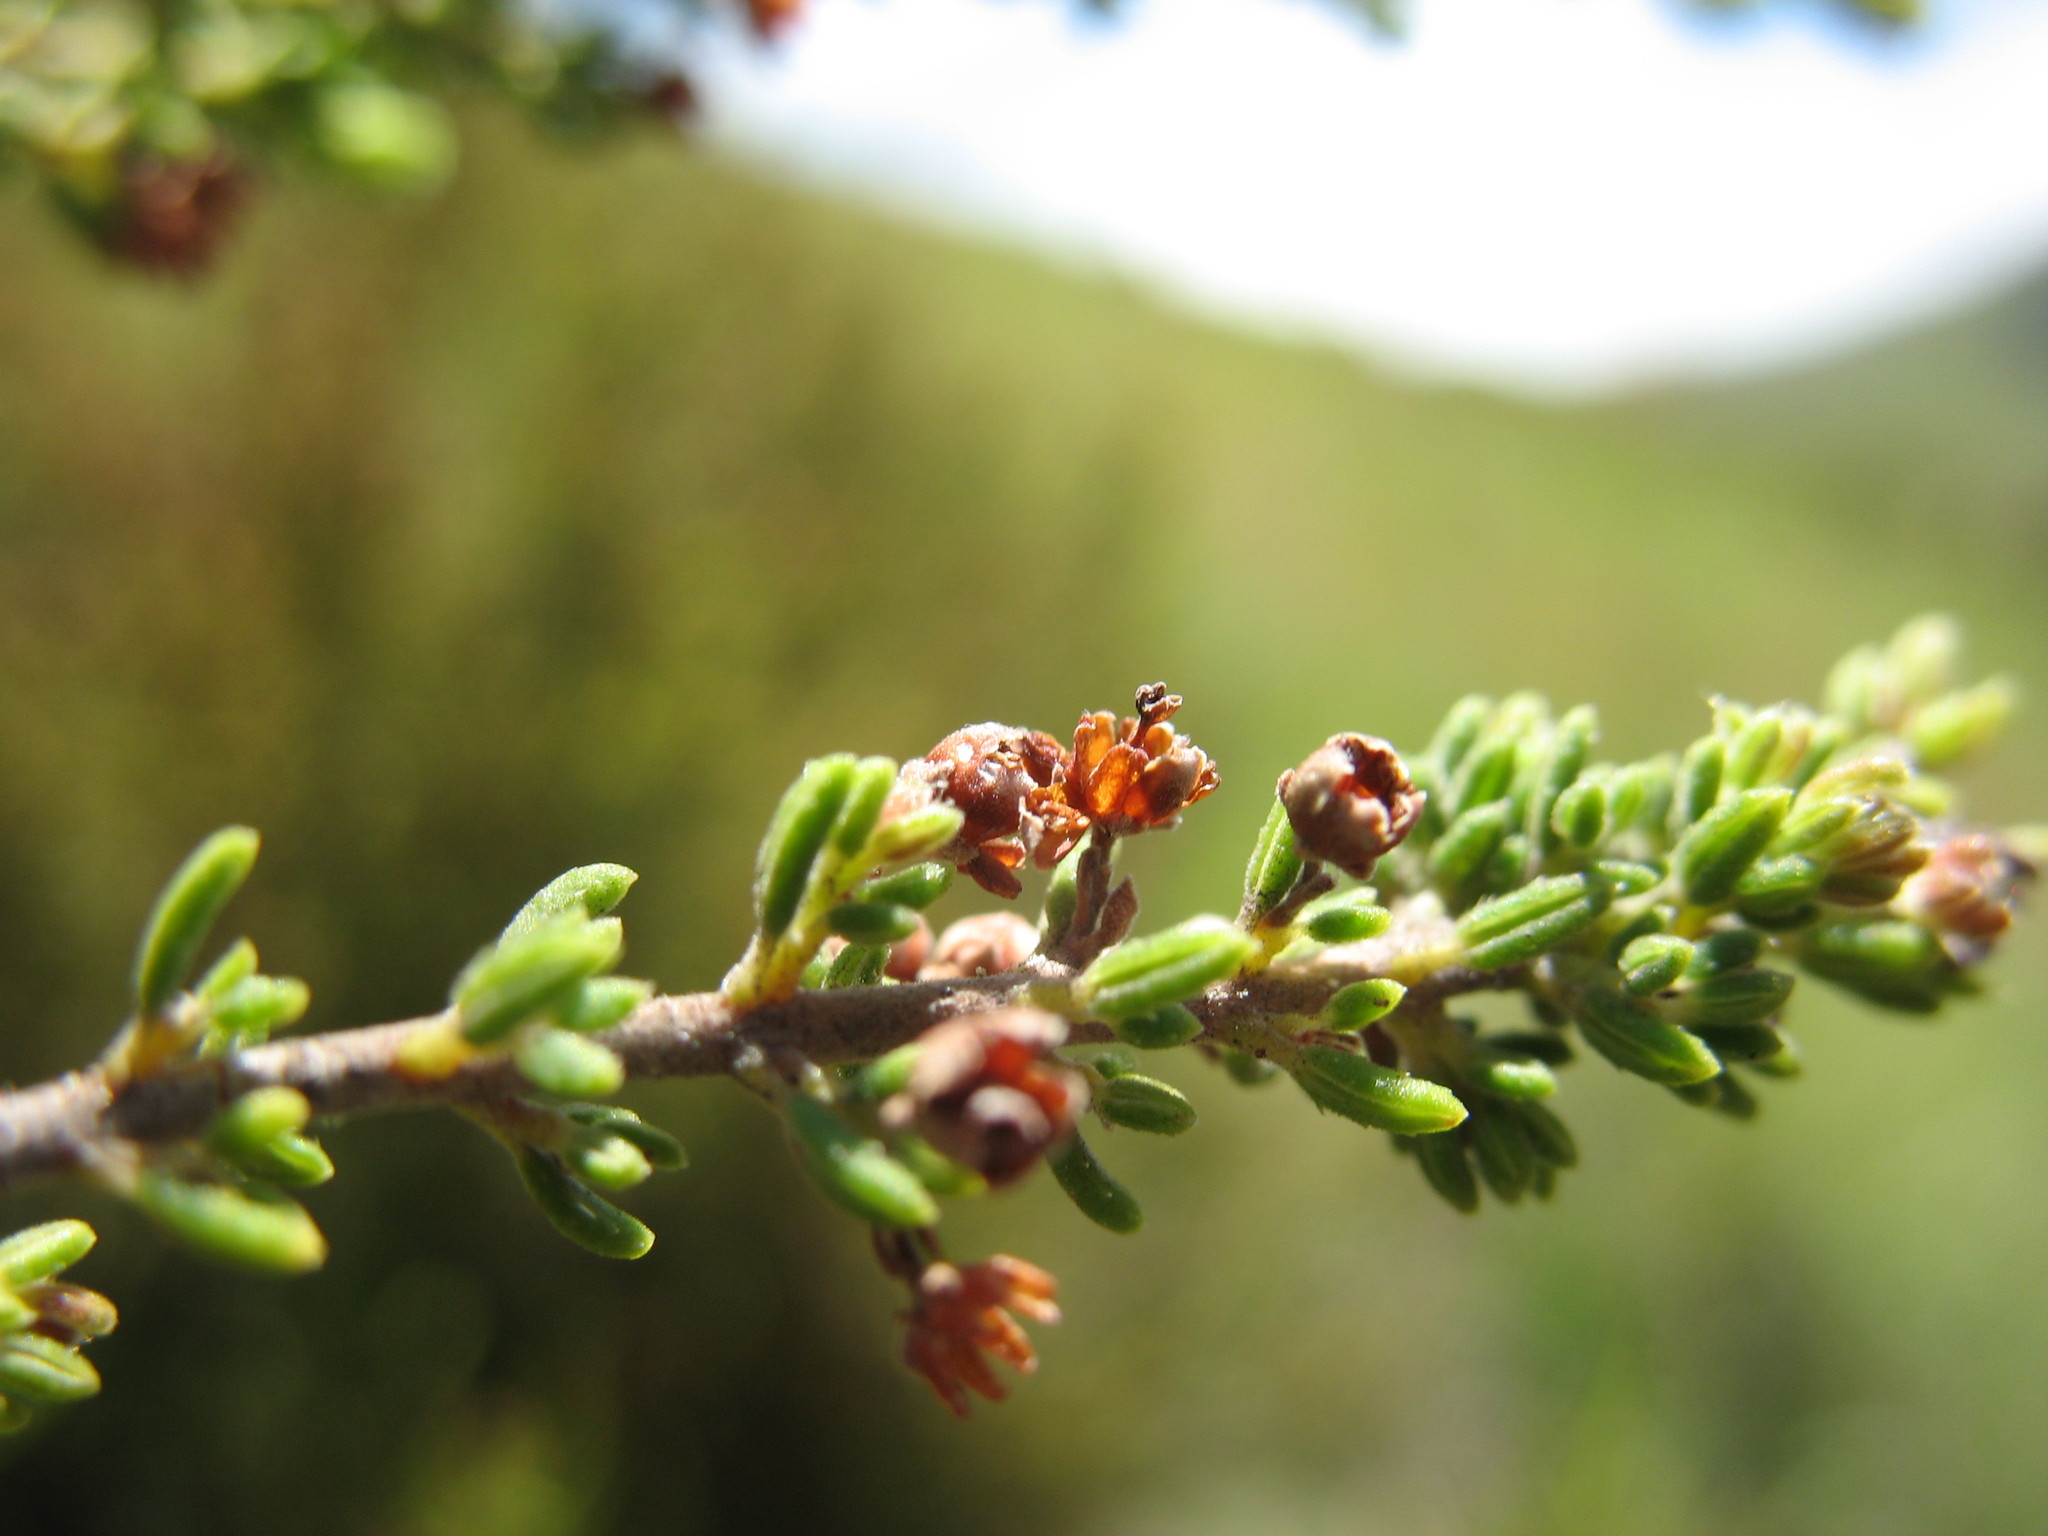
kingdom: Plantae
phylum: Tracheophyta
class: Magnoliopsida
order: Ericales
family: Ericaceae
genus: Erica
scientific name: Erica natalitia
